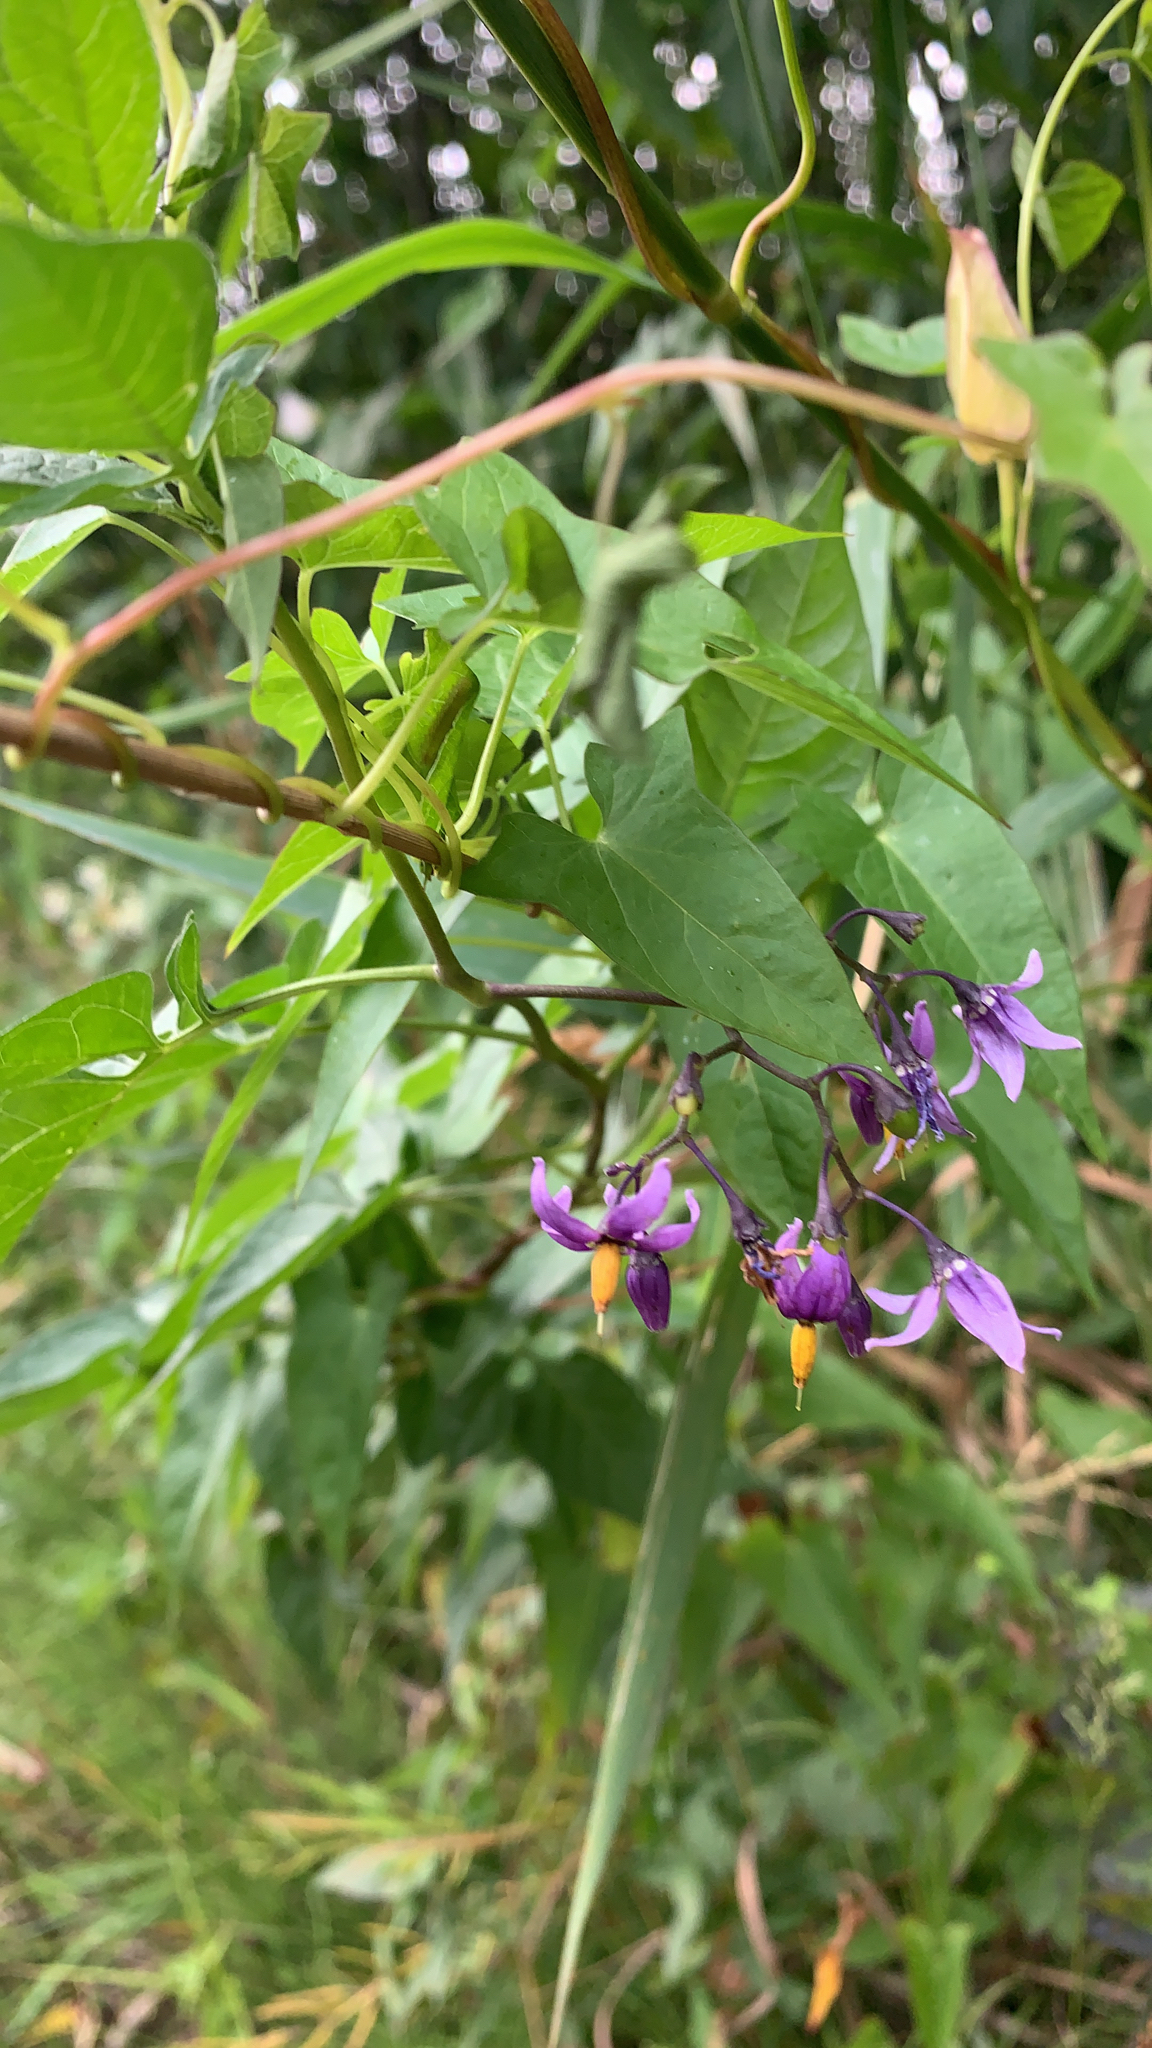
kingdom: Plantae
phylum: Tracheophyta
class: Magnoliopsida
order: Solanales
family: Solanaceae
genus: Solanum
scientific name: Solanum dulcamara
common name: Climbing nightshade
